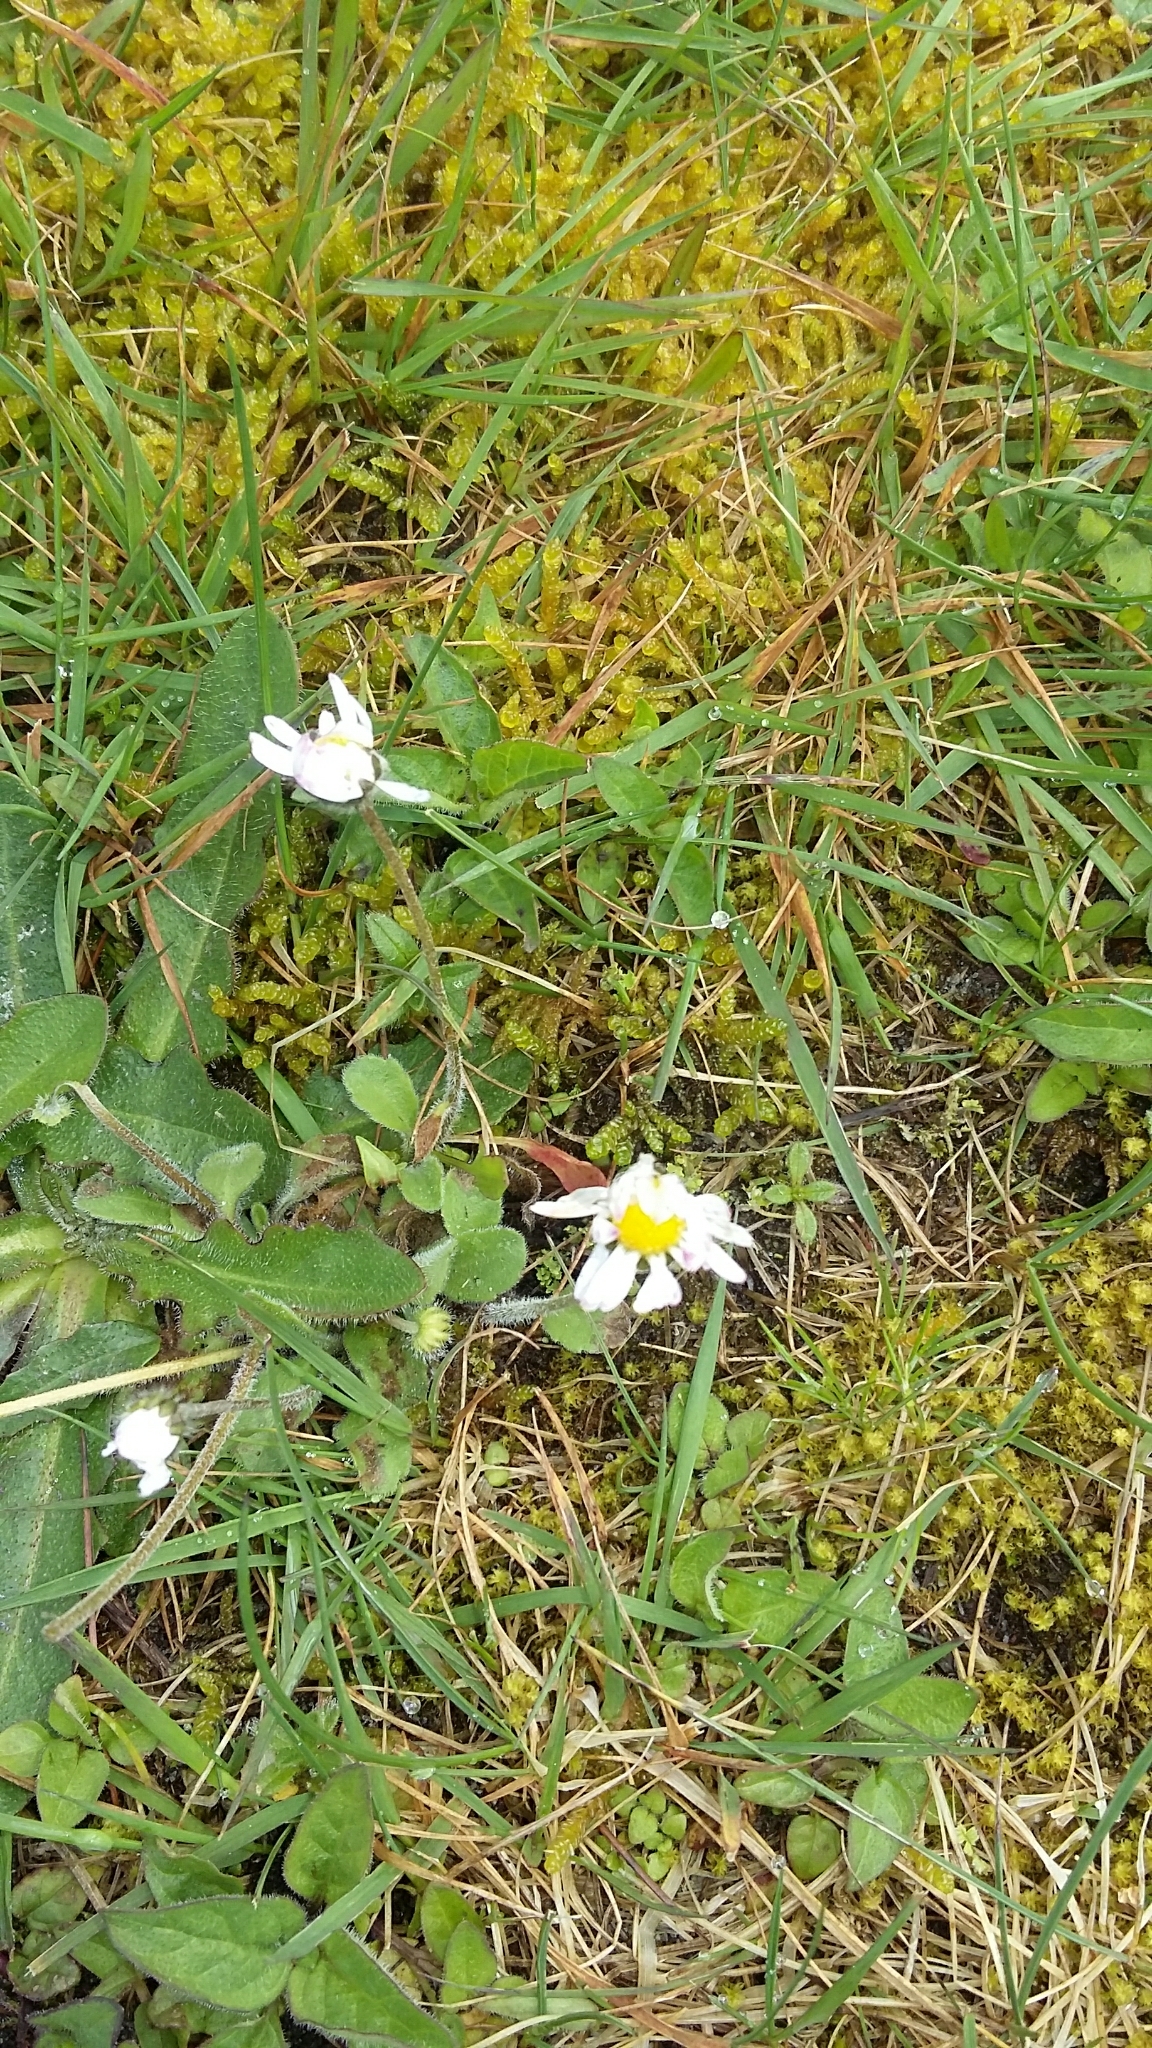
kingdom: Plantae
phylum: Tracheophyta
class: Magnoliopsida
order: Asterales
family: Asteraceae
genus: Bellis
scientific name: Bellis perennis
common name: Lawndaisy
